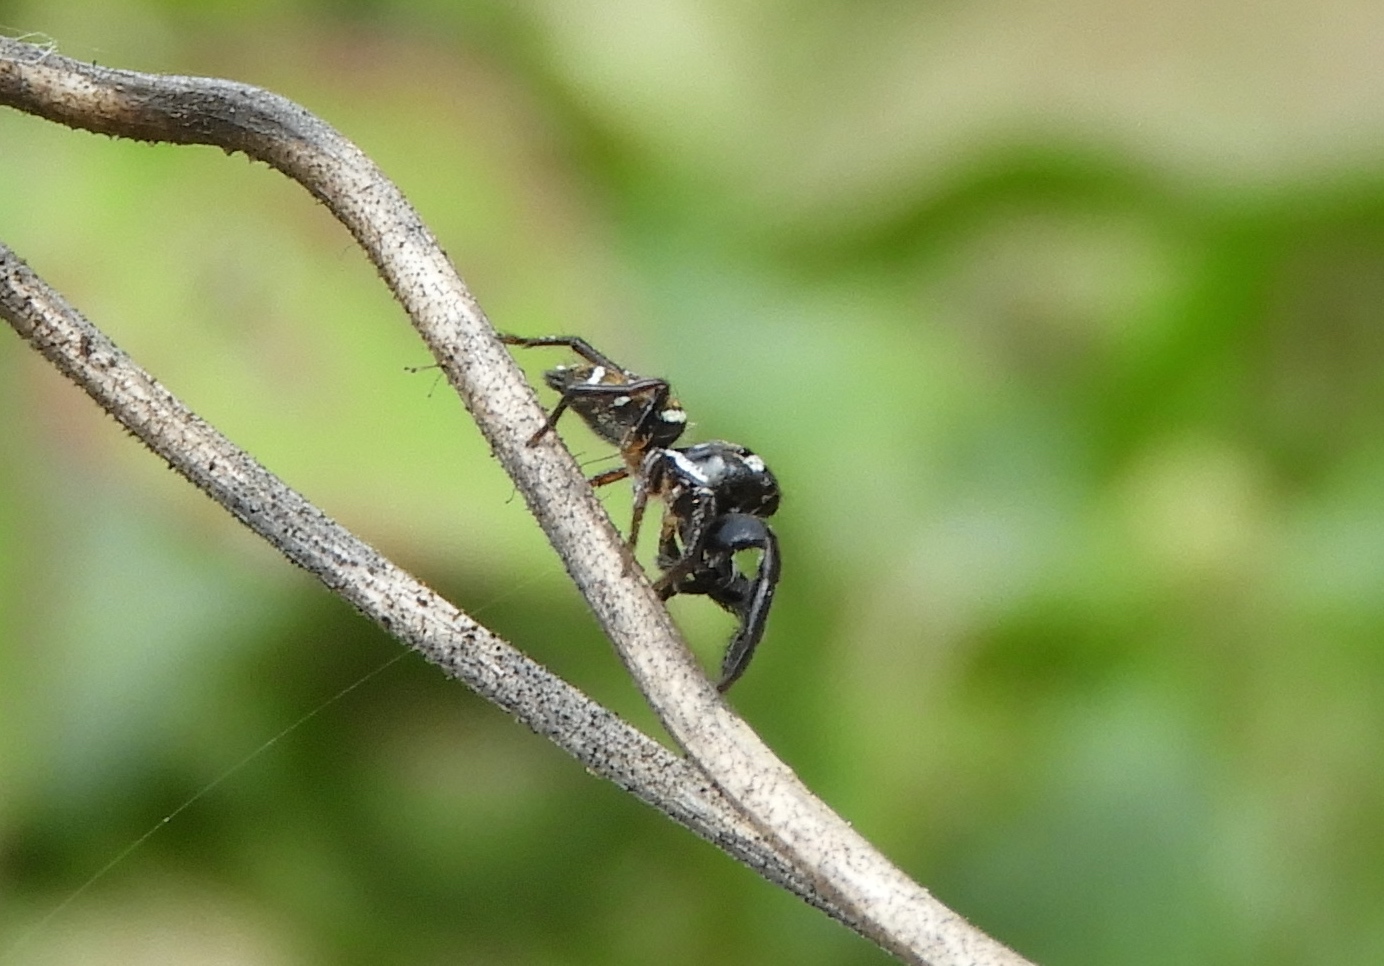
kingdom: Animalia
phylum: Arthropoda
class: Arachnida
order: Araneae
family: Salticidae
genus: Sassacus
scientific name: Sassacus
